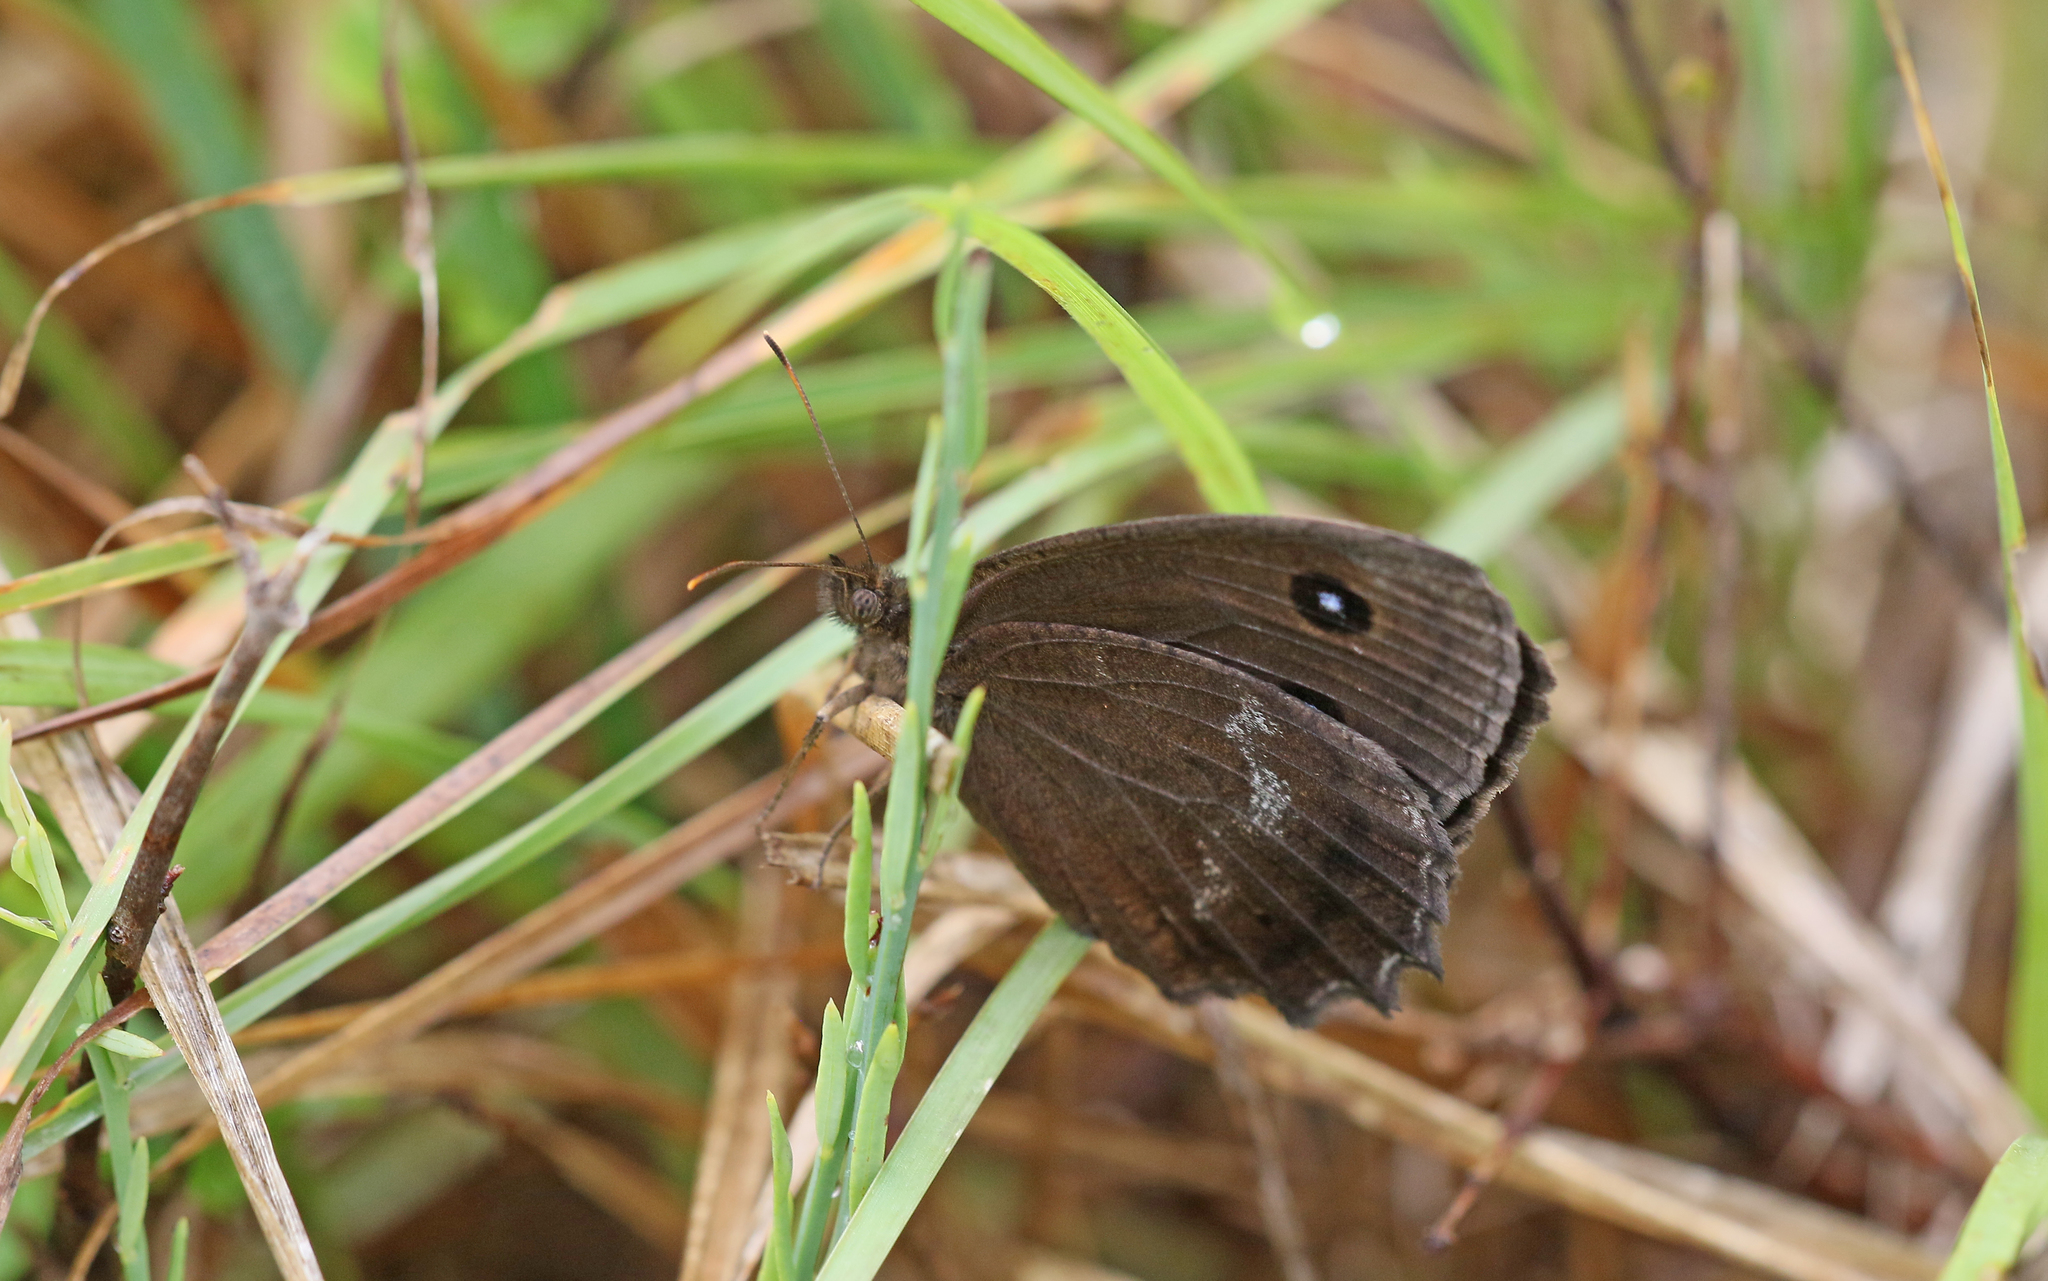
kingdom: Animalia
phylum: Arthropoda
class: Insecta
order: Lepidoptera
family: Nymphalidae
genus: Minois
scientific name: Minois dryas
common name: Dryad
